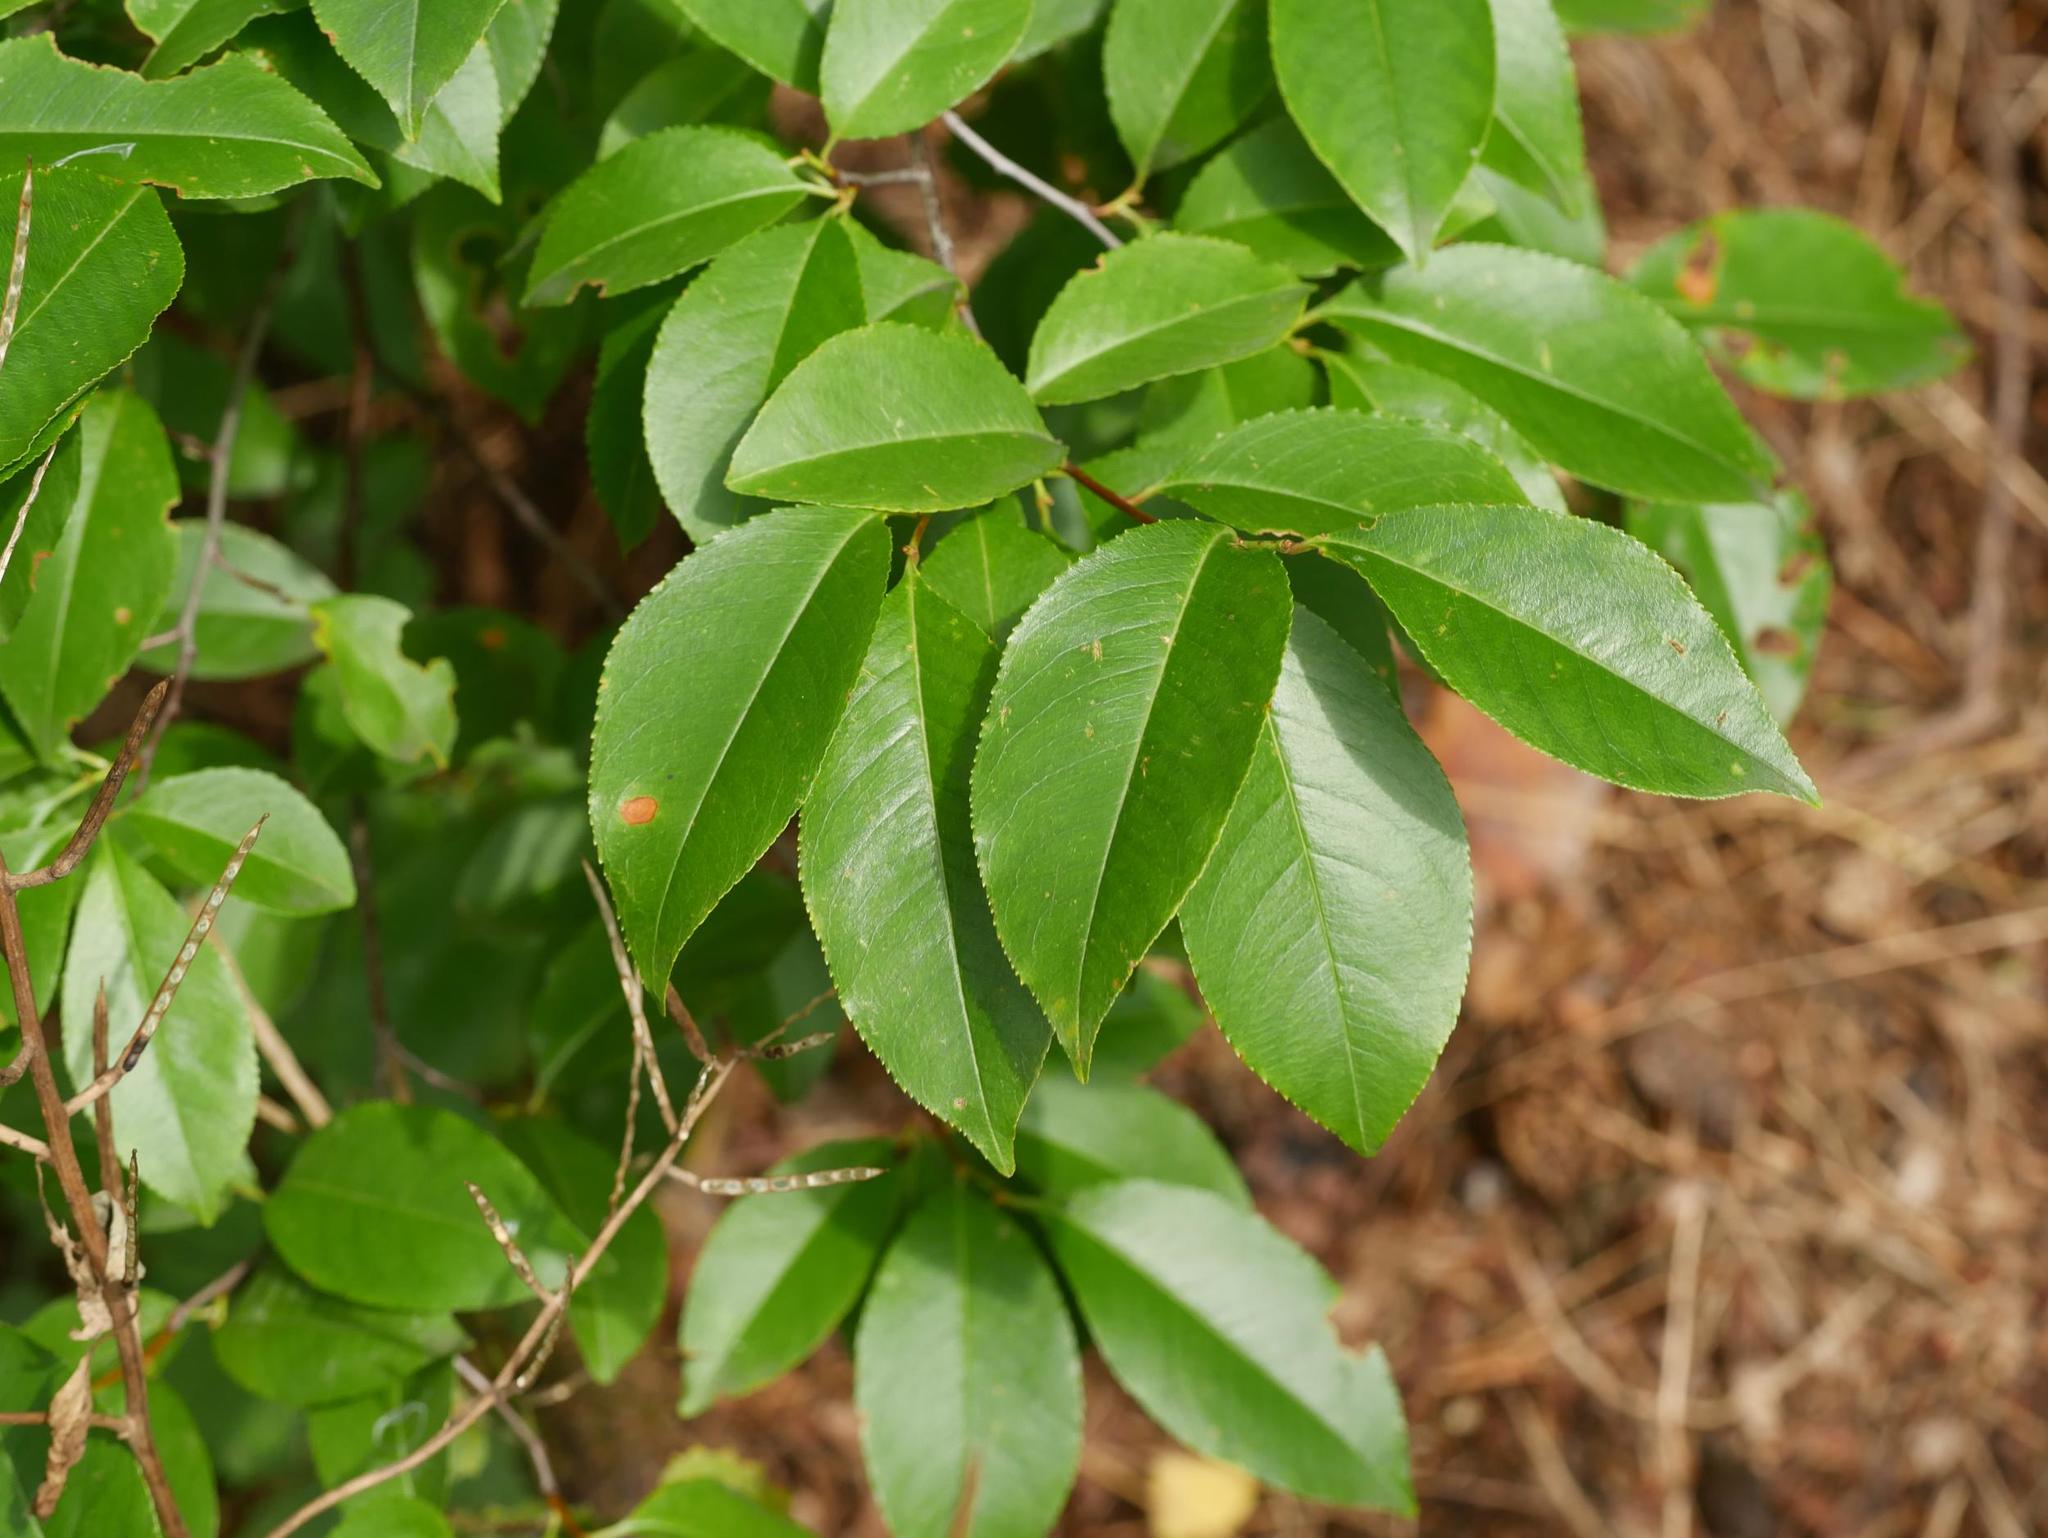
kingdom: Plantae
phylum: Tracheophyta
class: Magnoliopsida
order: Rosales
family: Rosaceae
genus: Prunus
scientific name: Prunus serotina
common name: Black cherry
